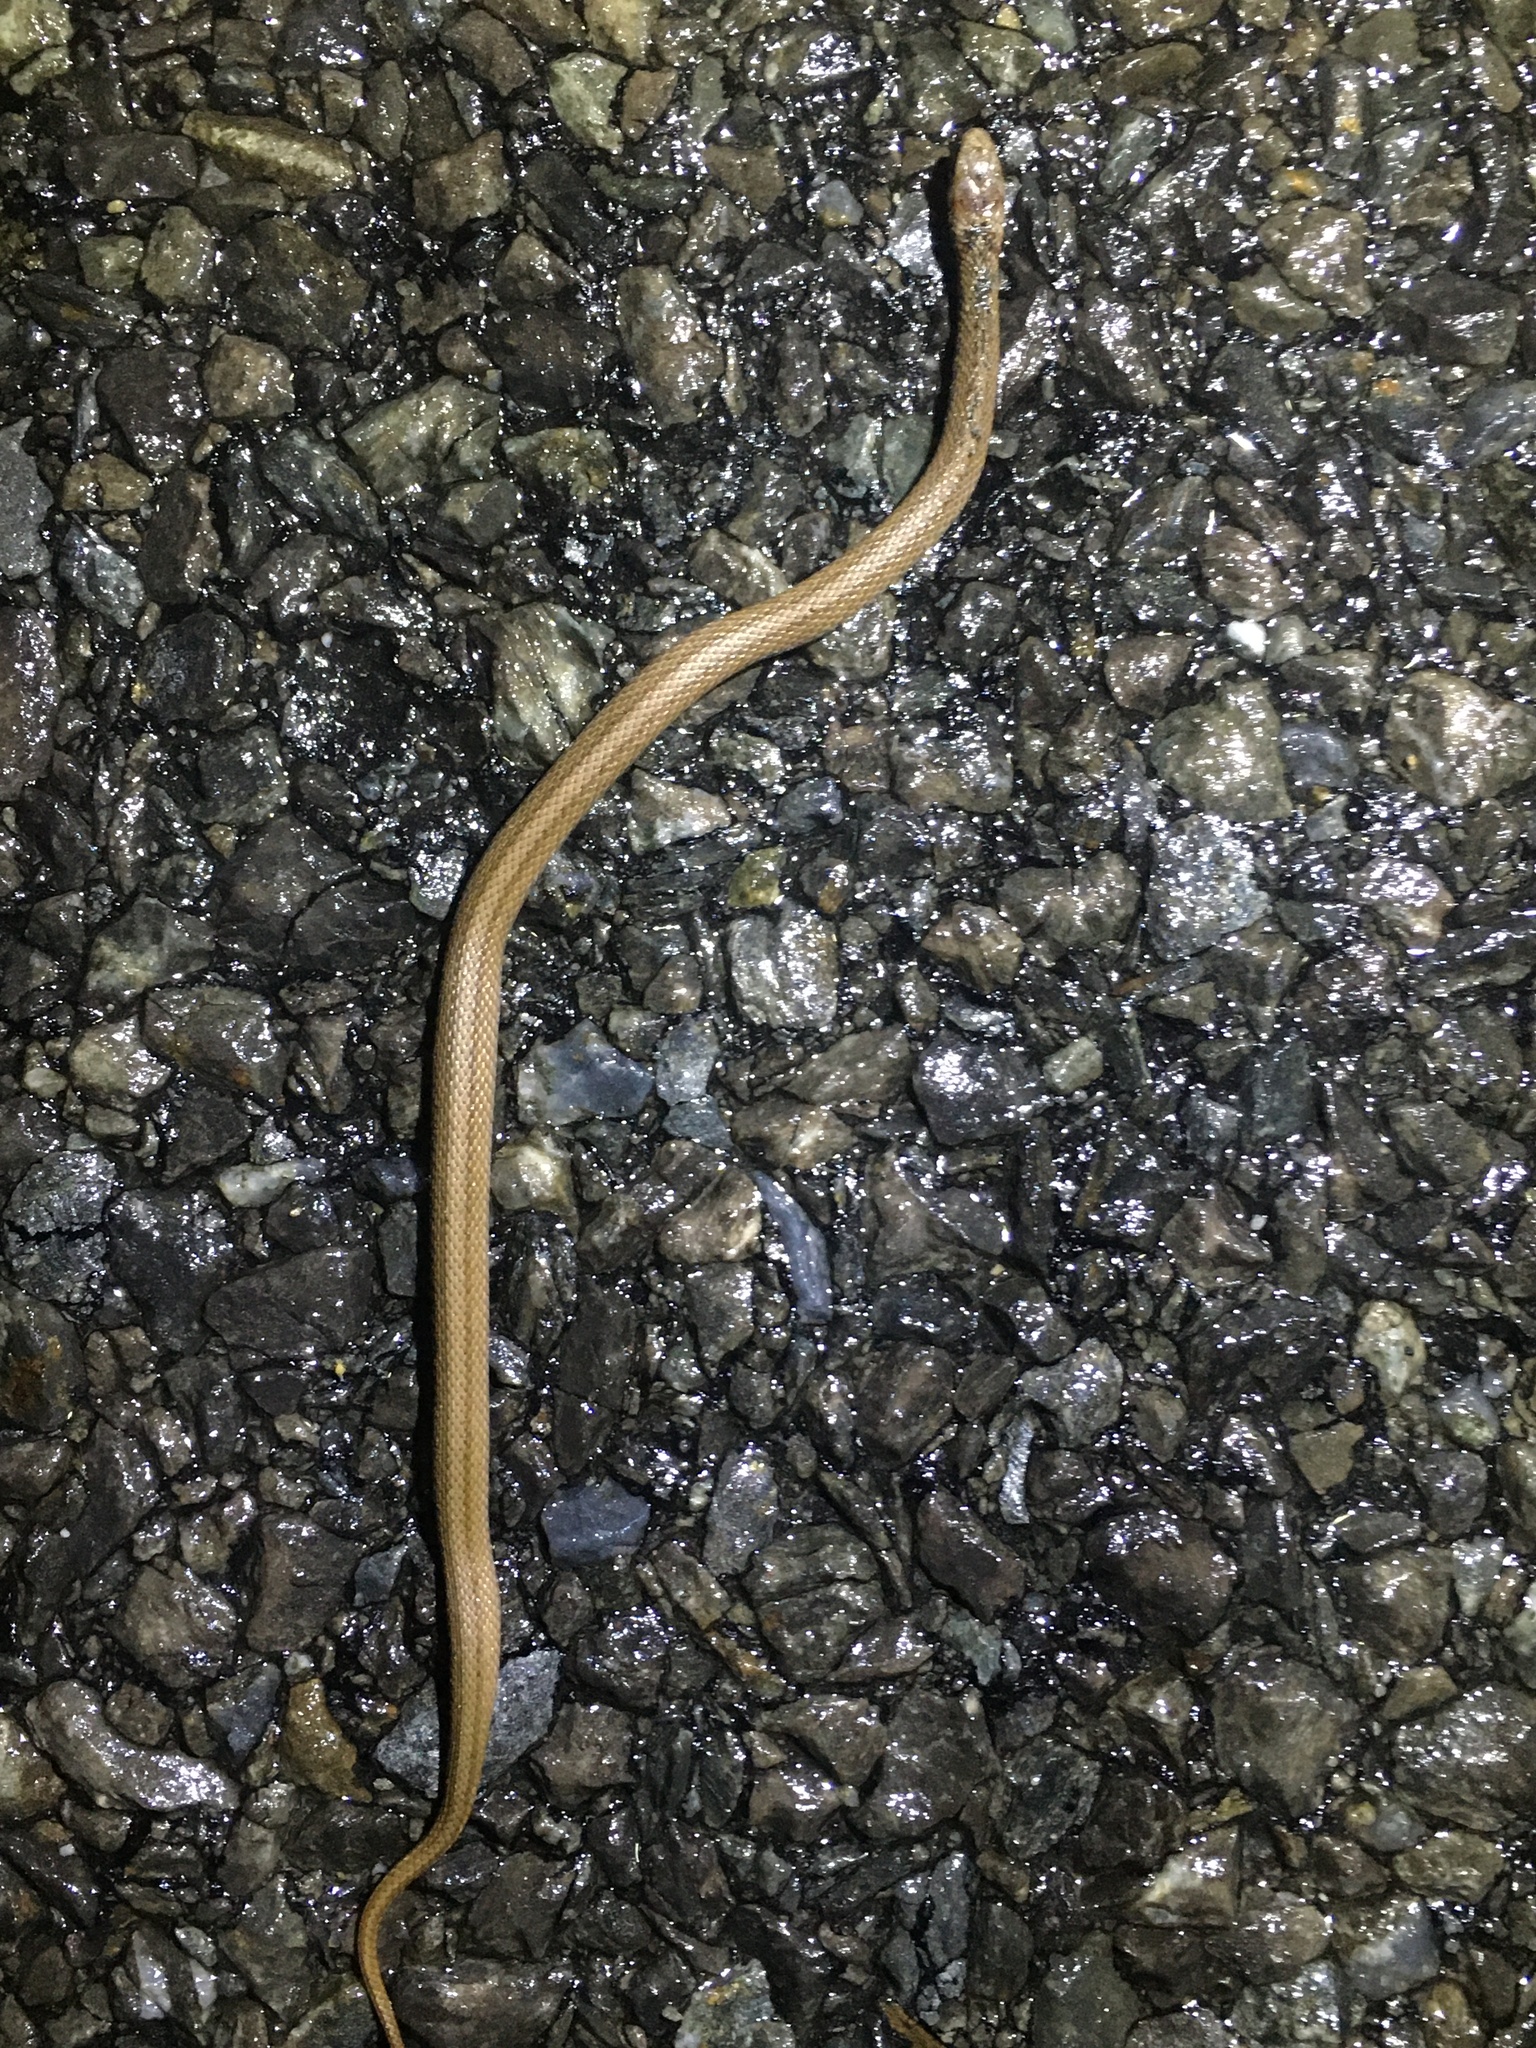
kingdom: Animalia
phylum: Chordata
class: Squamata
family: Colubridae
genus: Storeria
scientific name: Storeria dekayi
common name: (dekay’s) brown snake
